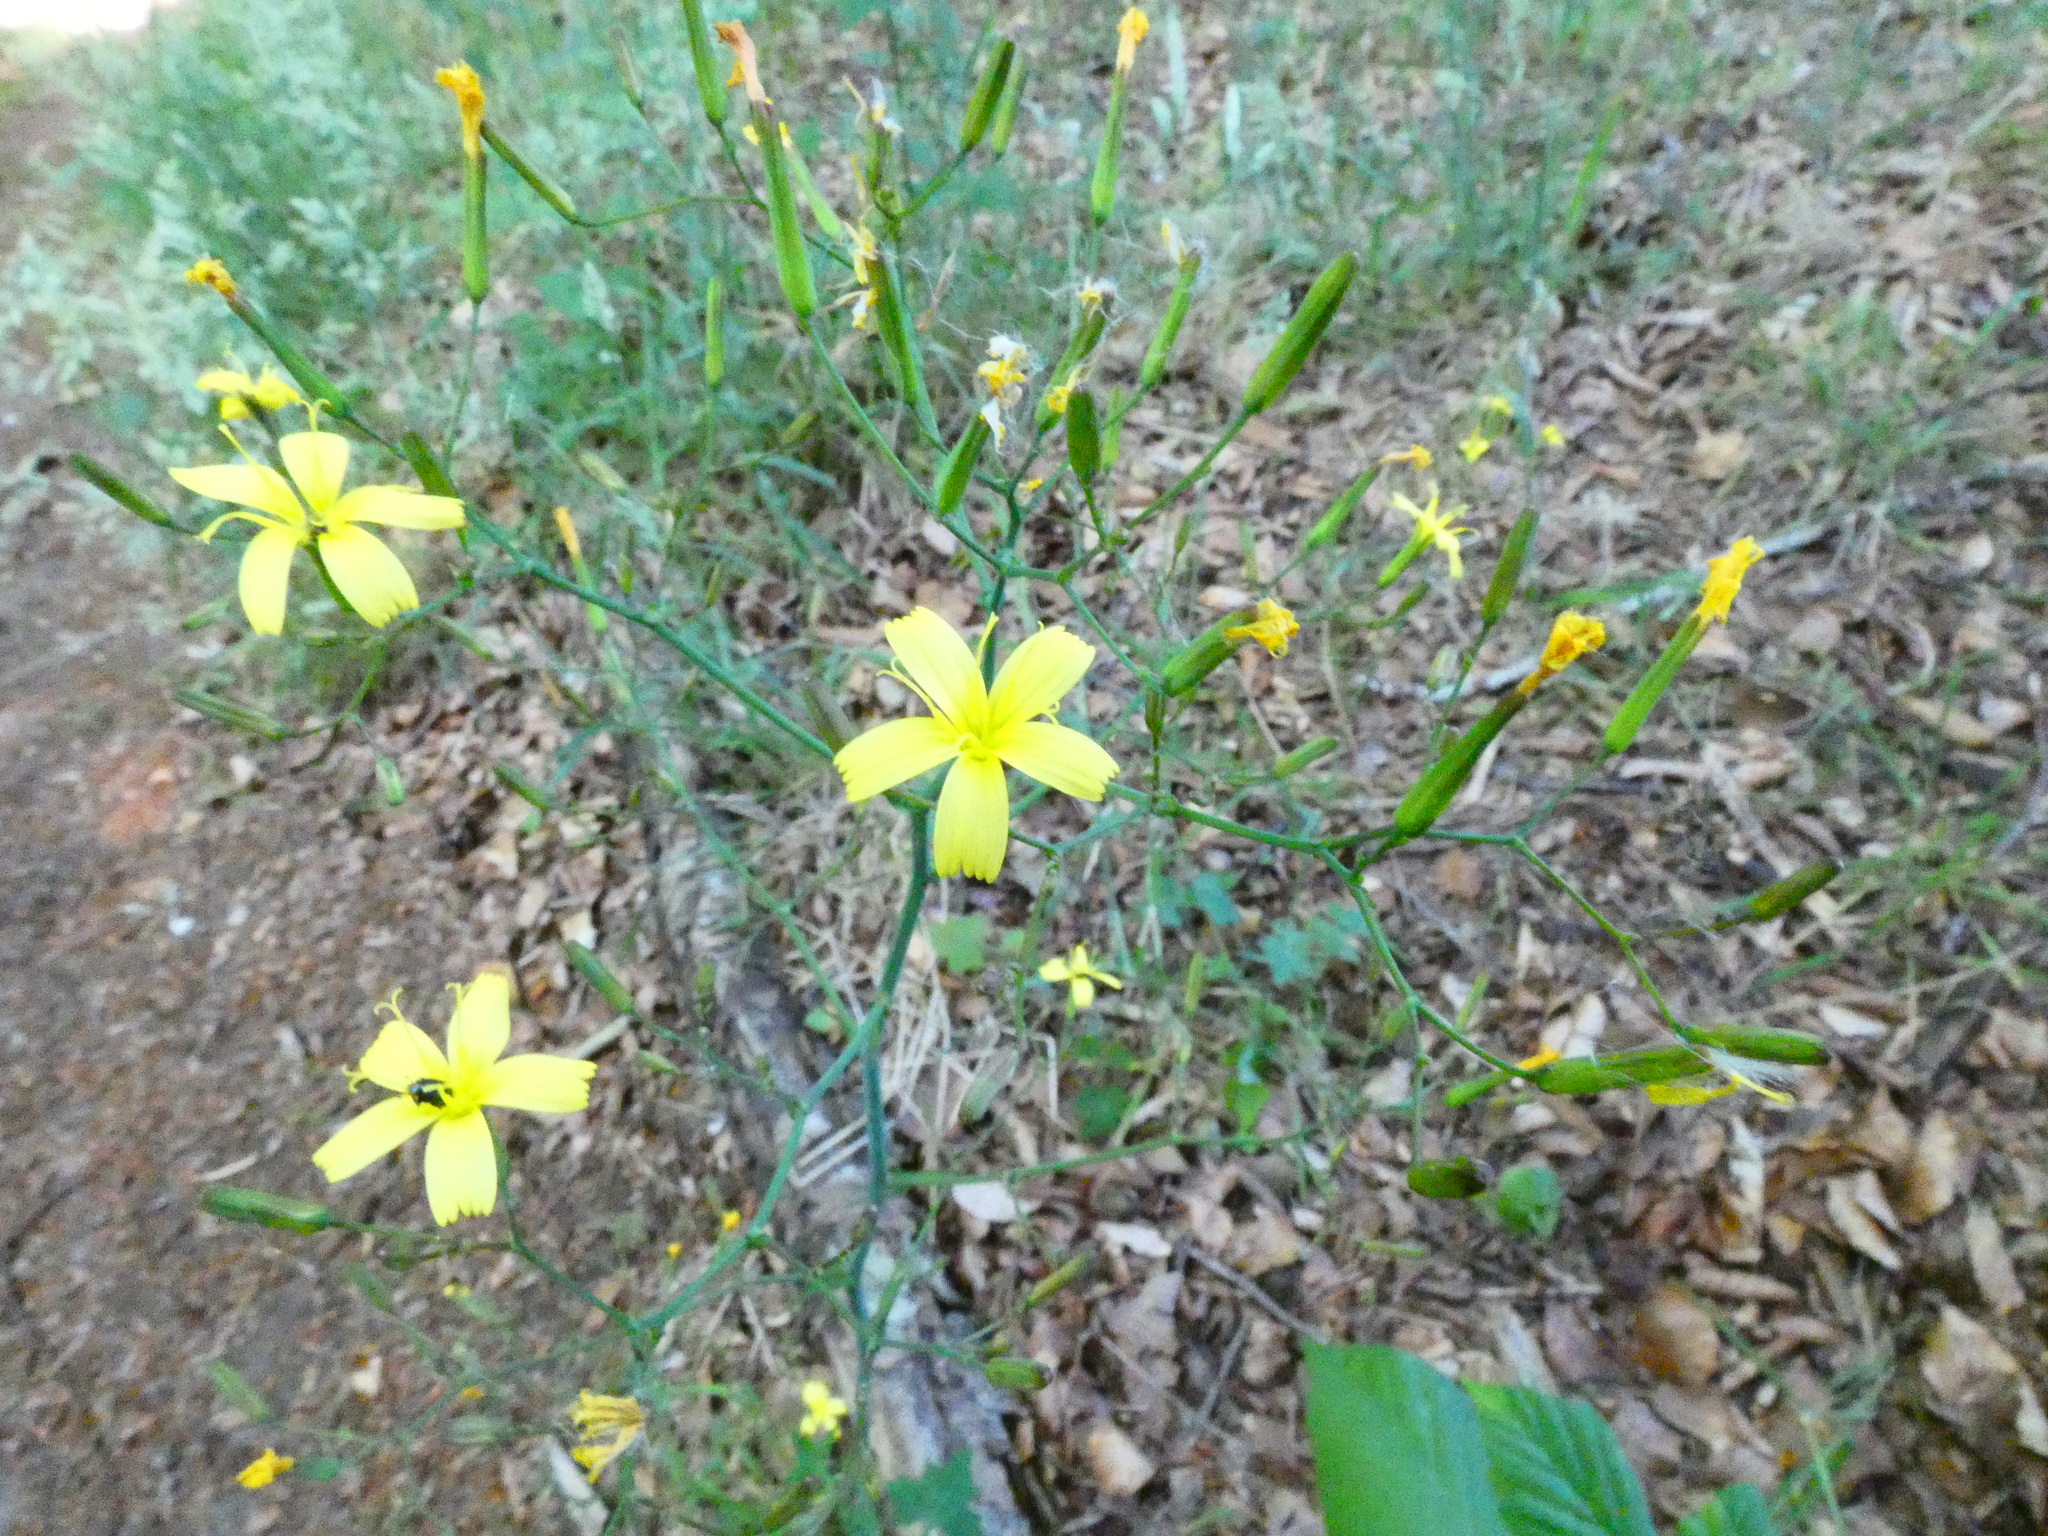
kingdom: Plantae
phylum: Tracheophyta
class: Magnoliopsida
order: Asterales
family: Asteraceae
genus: Mycelis
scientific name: Mycelis muralis
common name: Wall lettuce
